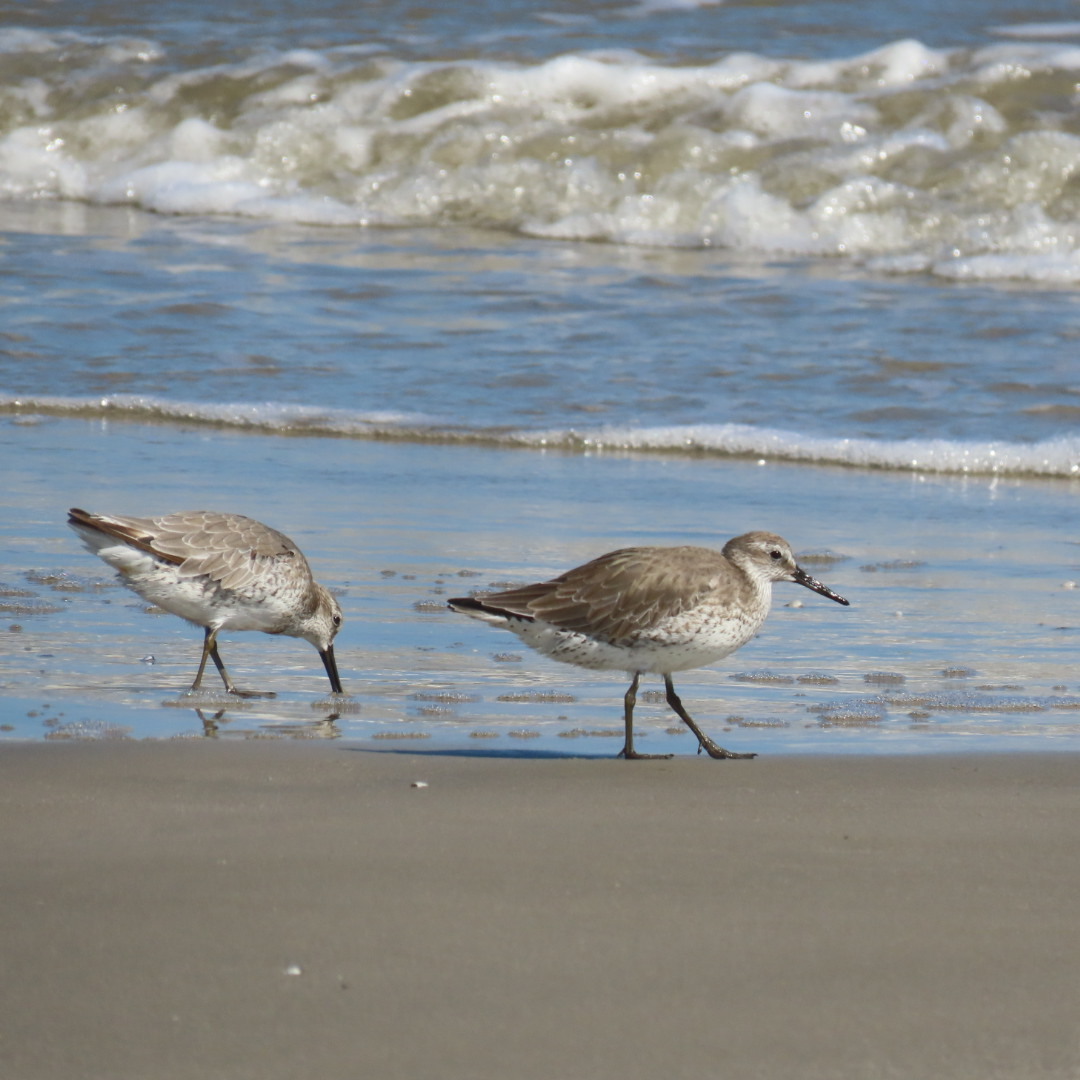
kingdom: Animalia
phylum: Chordata
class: Aves
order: Charadriiformes
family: Scolopacidae
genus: Calidris
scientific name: Calidris canutus
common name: Red knot
